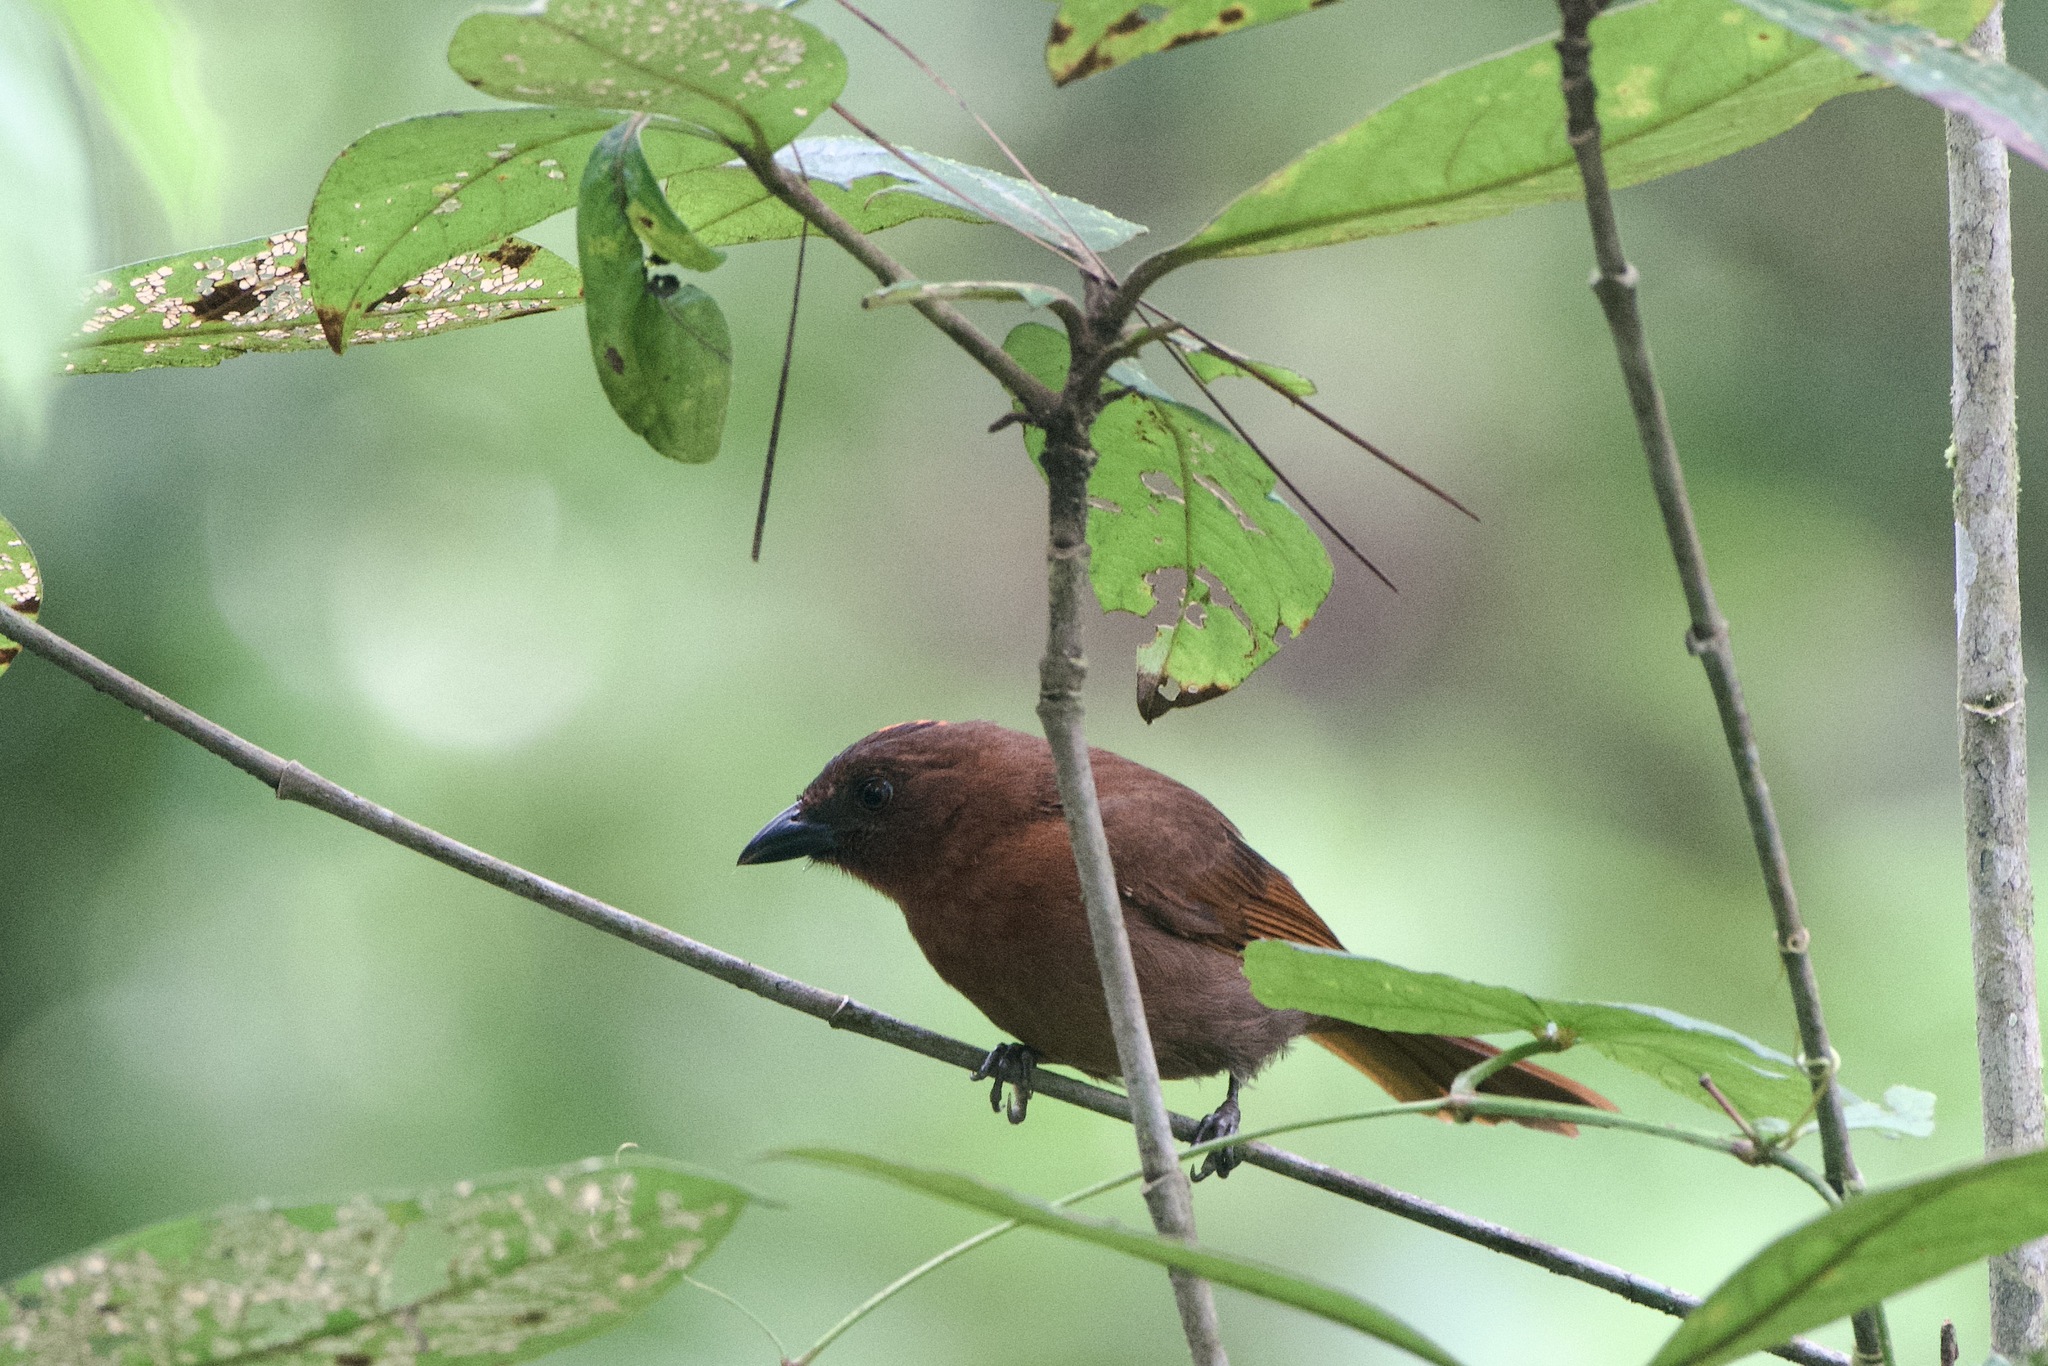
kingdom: Animalia
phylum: Chordata
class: Aves
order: Passeriformes
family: Cardinalidae
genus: Habia
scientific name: Habia rubica
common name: Red-crowned ant-tanager
